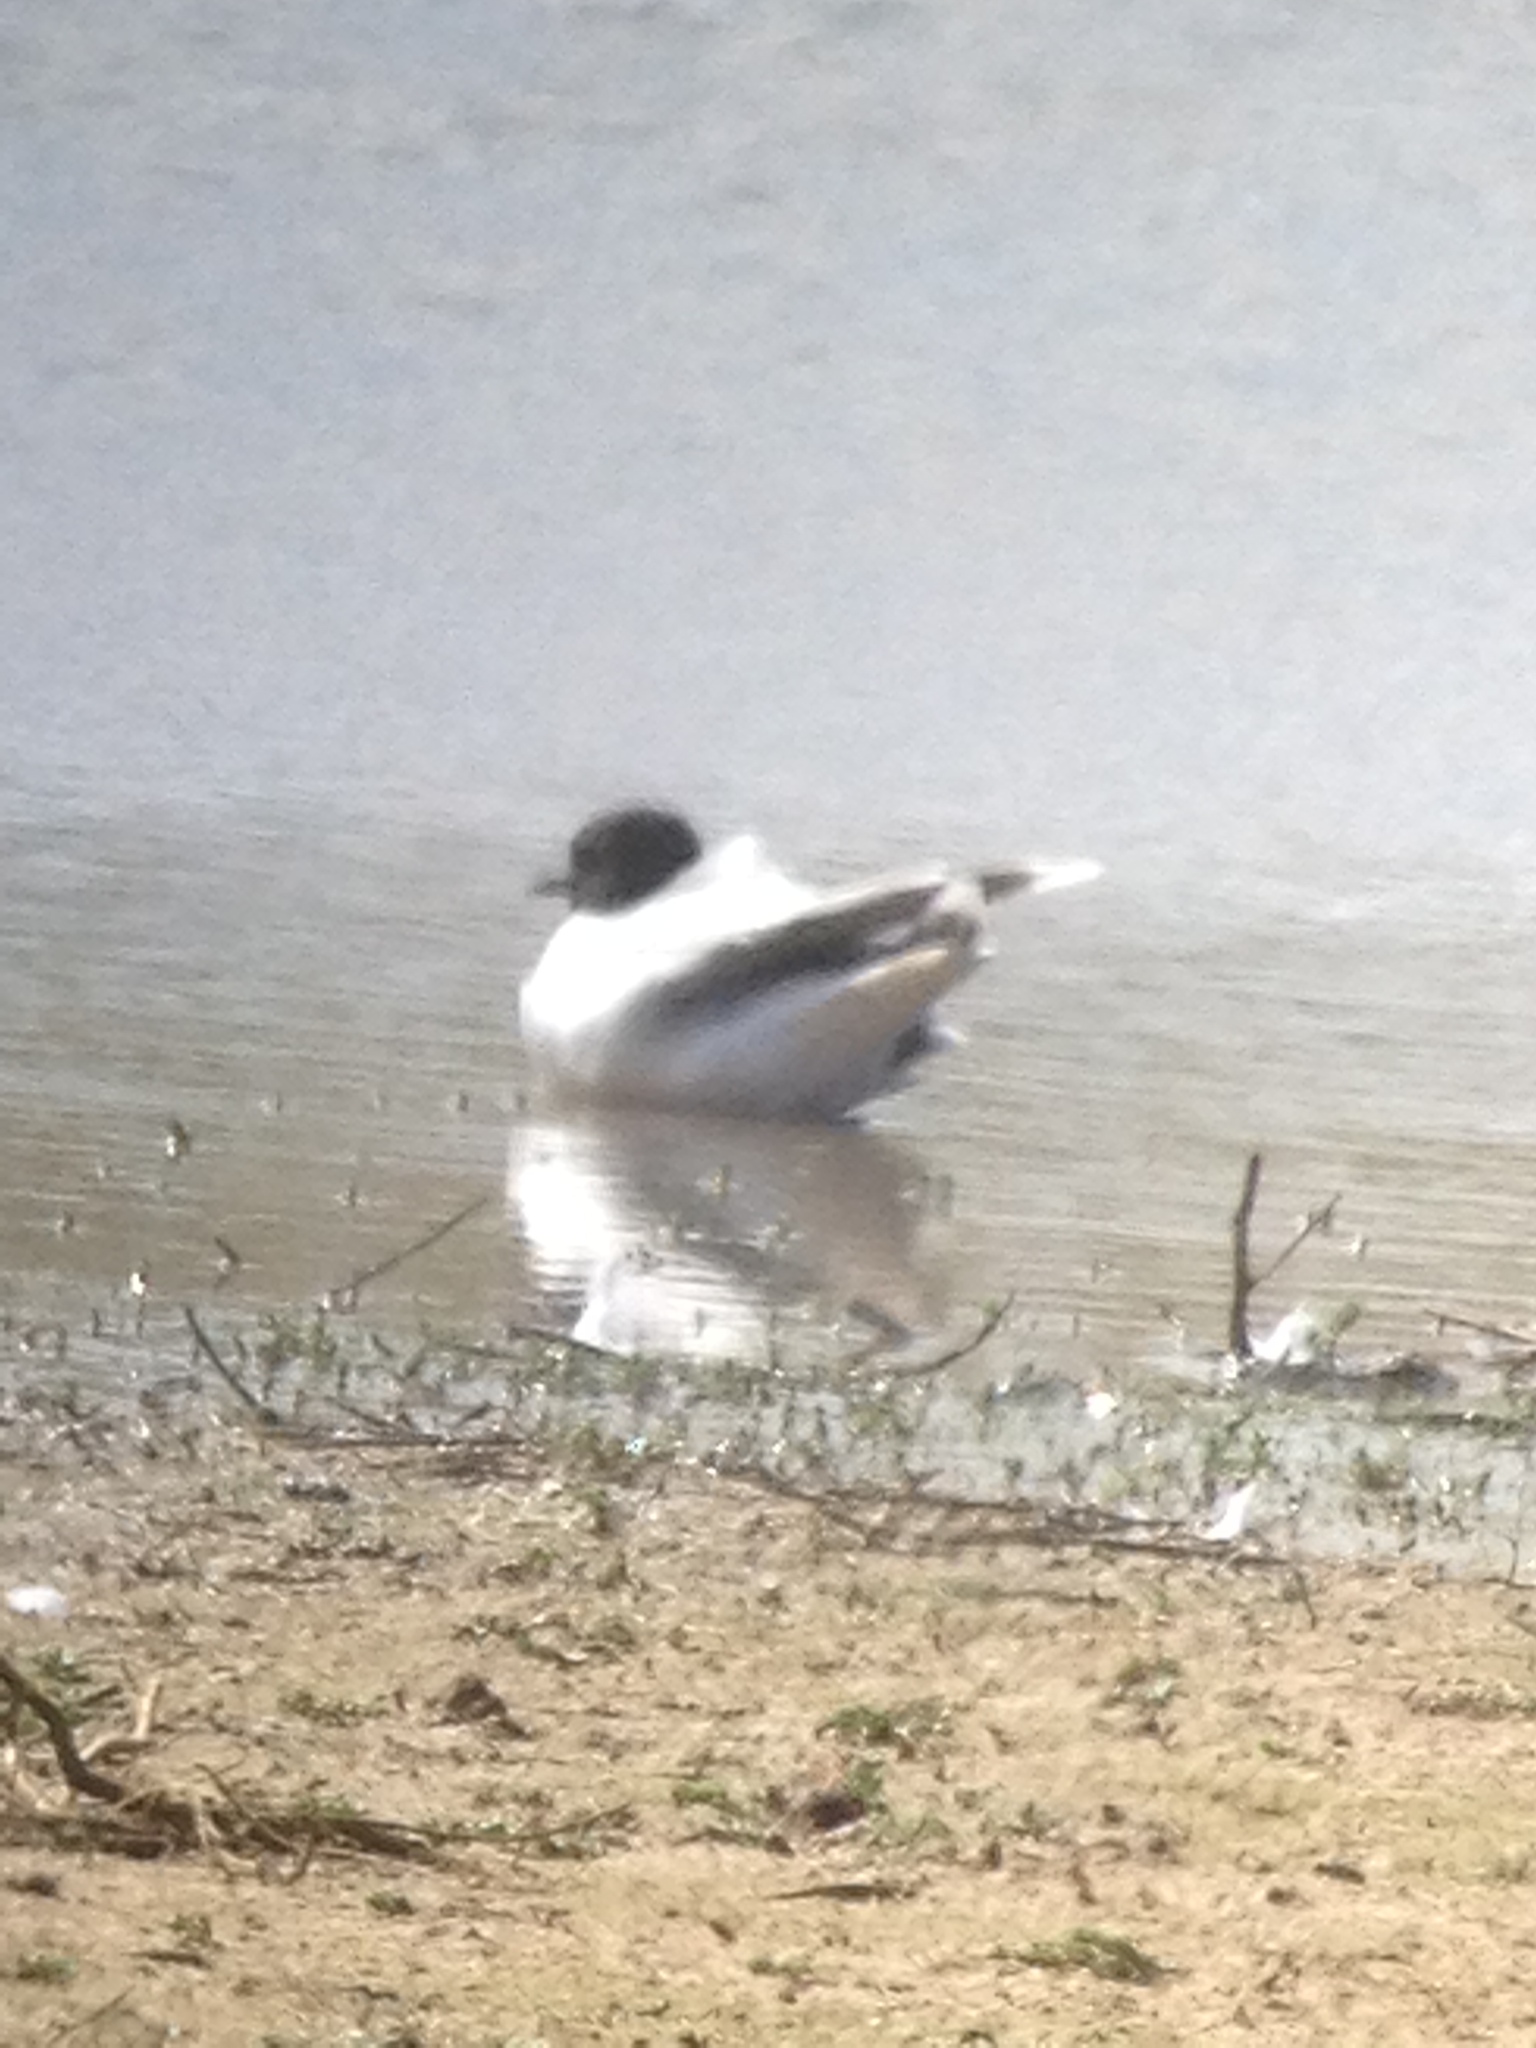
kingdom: Animalia
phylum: Chordata
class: Aves
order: Charadriiformes
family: Laridae
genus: Hydrocoloeus
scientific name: Hydrocoloeus minutus
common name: Little gull
